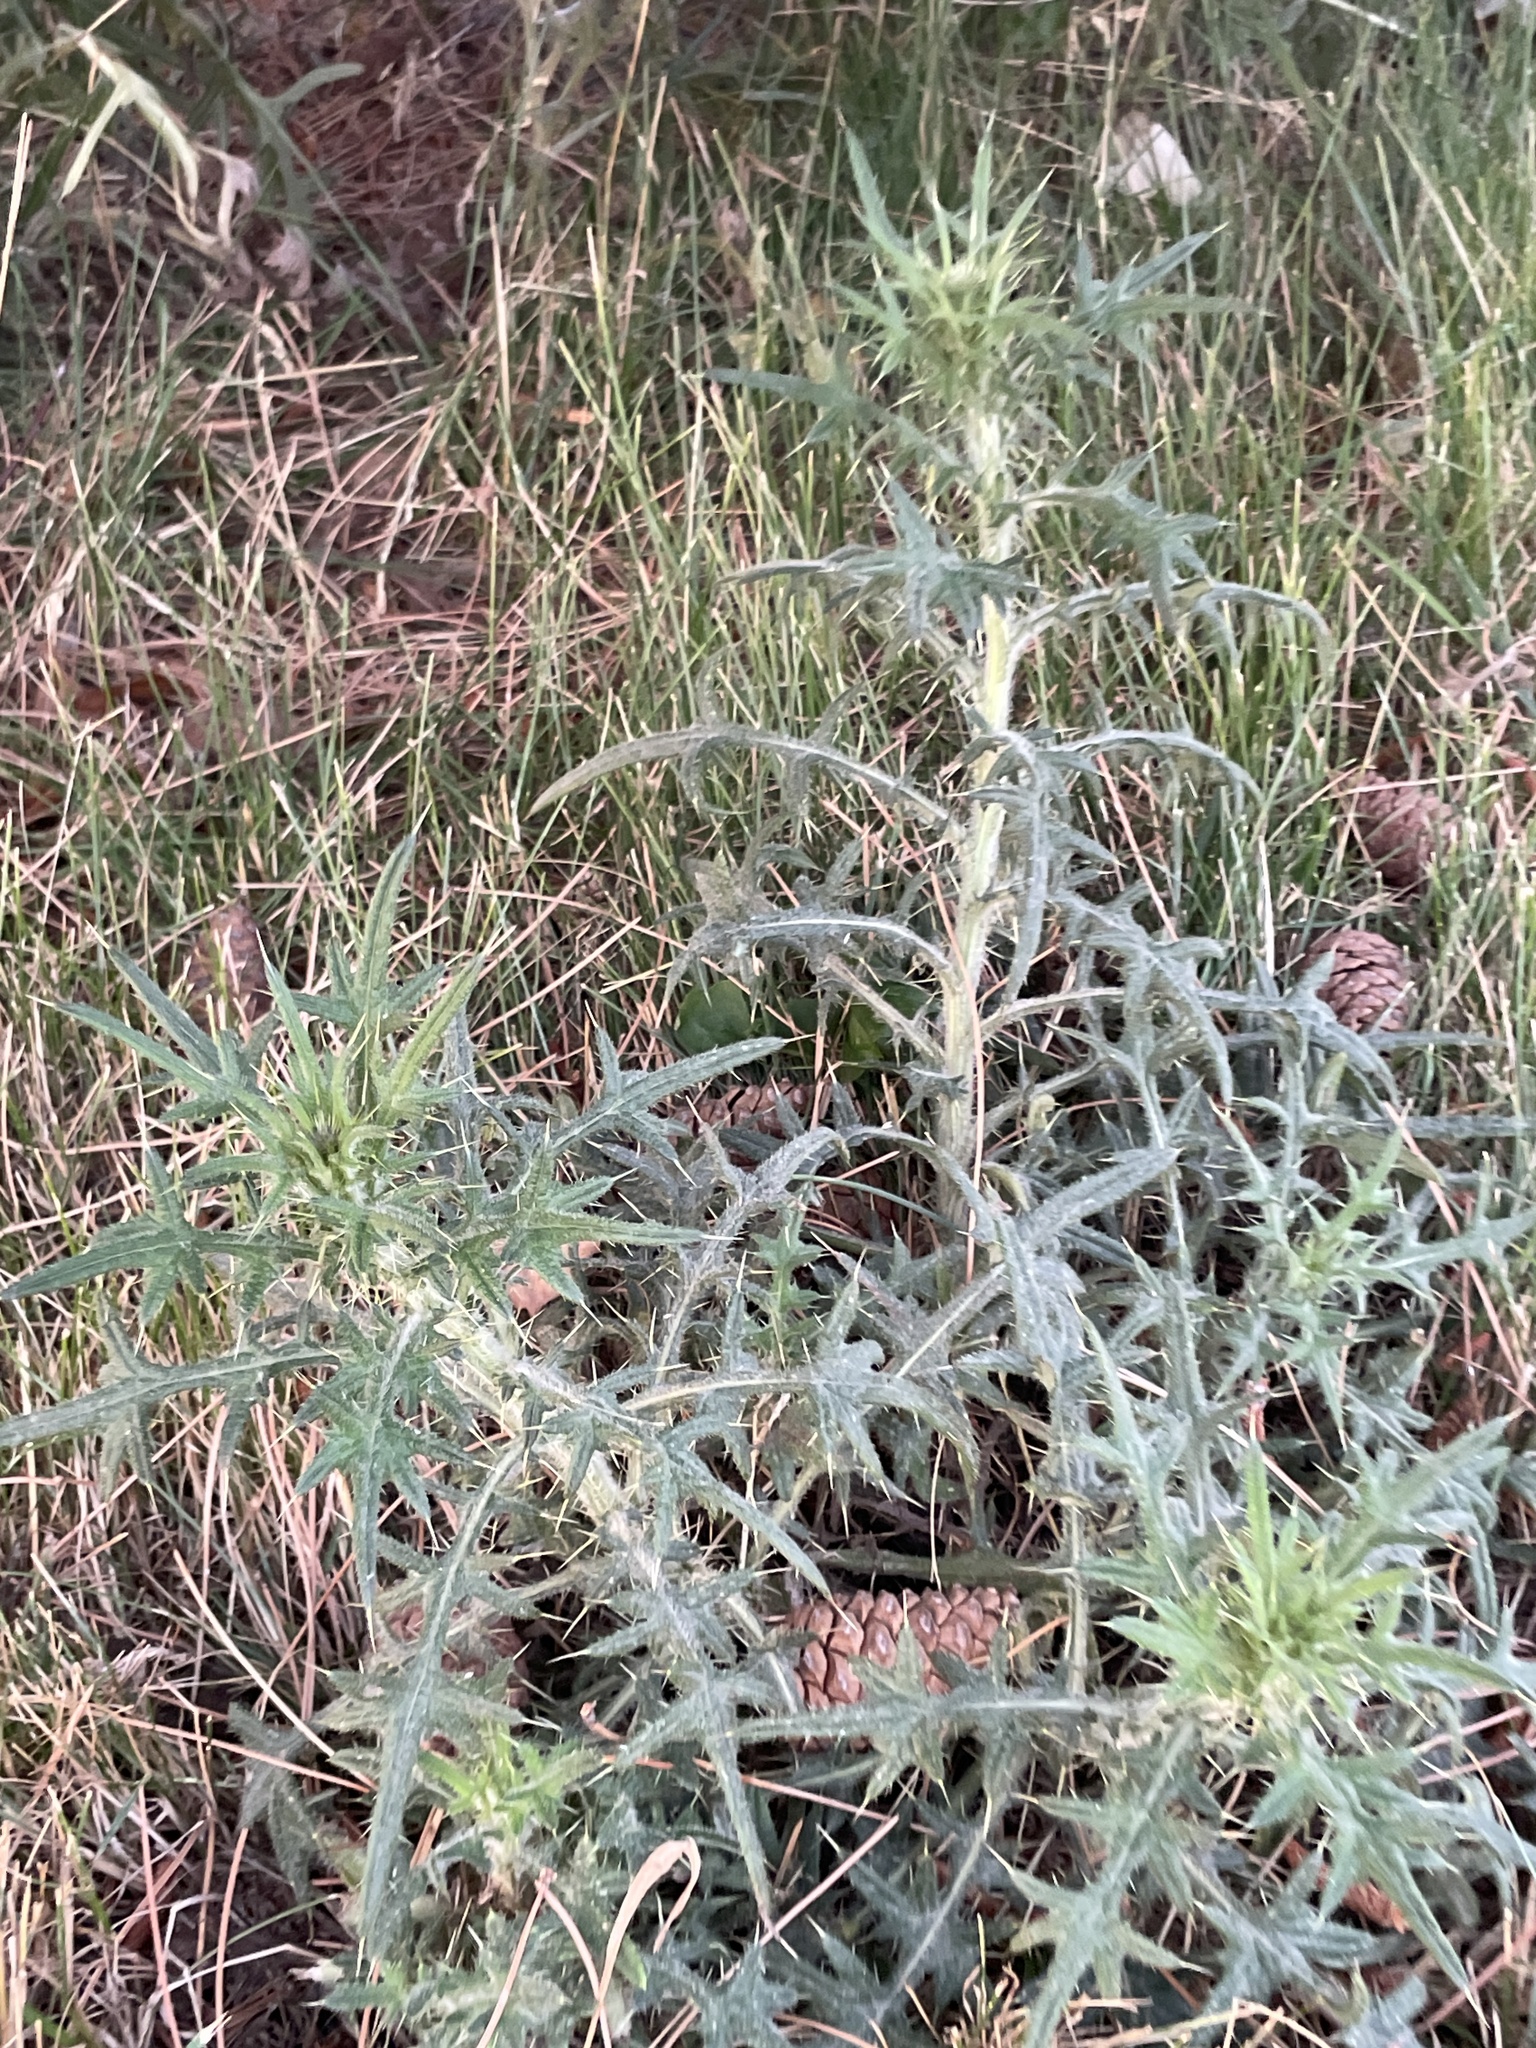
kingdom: Plantae
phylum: Tracheophyta
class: Magnoliopsida
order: Asterales
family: Asteraceae
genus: Cirsium
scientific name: Cirsium vulgare
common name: Bull thistle
